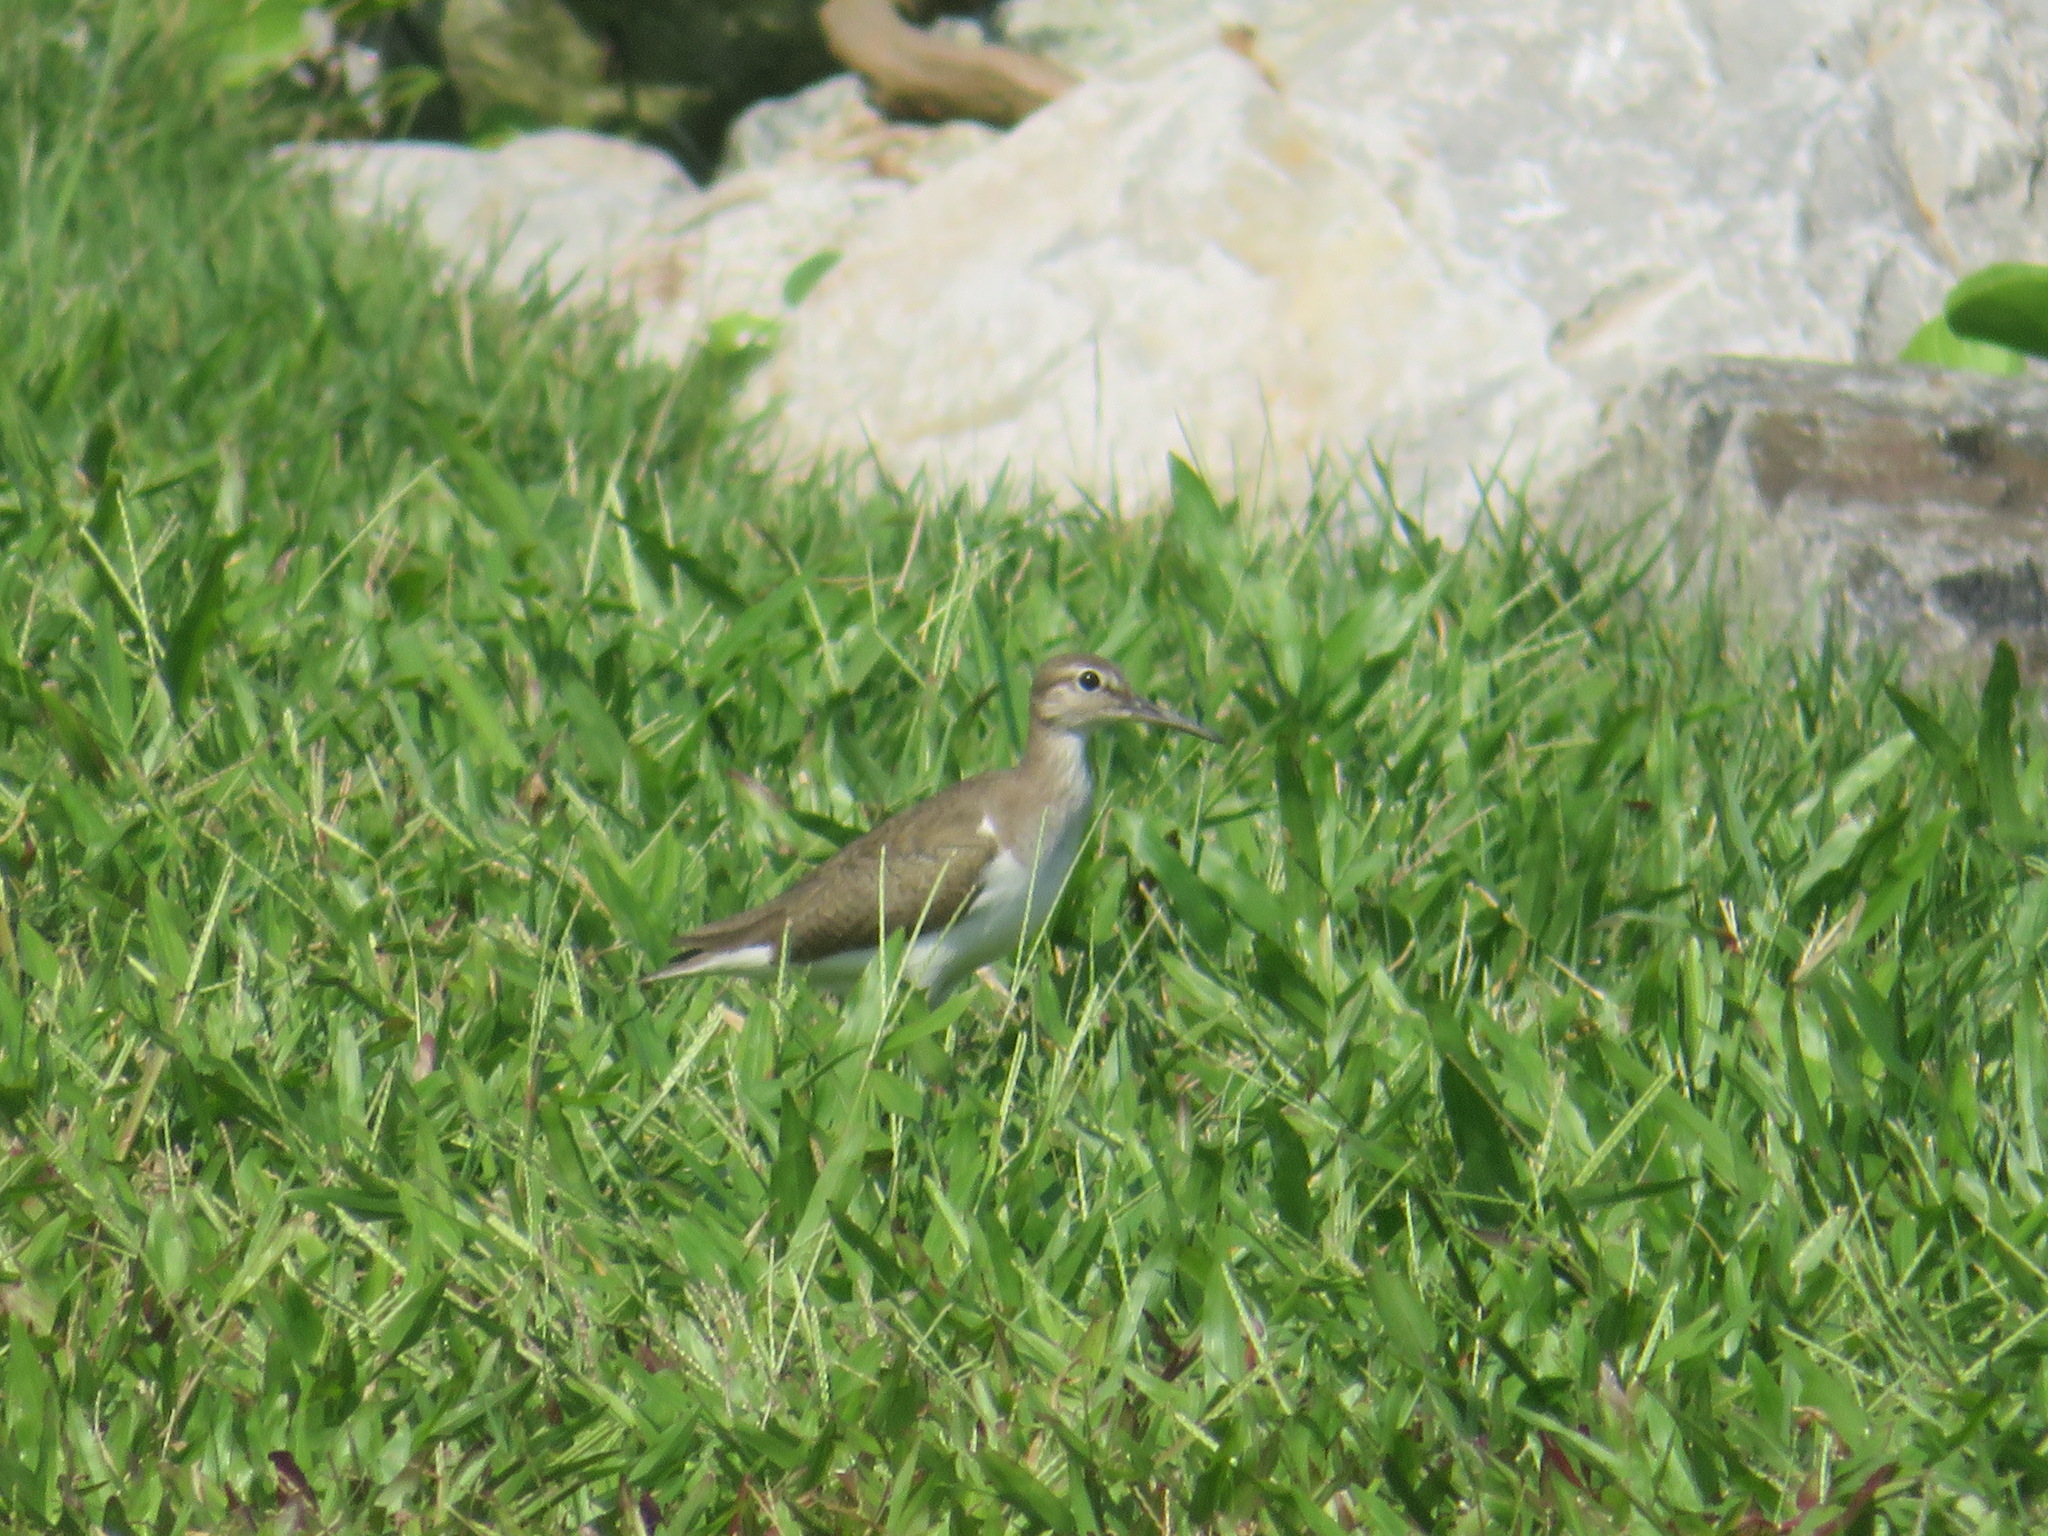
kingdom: Animalia
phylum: Chordata
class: Aves
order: Charadriiformes
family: Scolopacidae
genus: Actitis
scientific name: Actitis hypoleucos
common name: Common sandpiper
